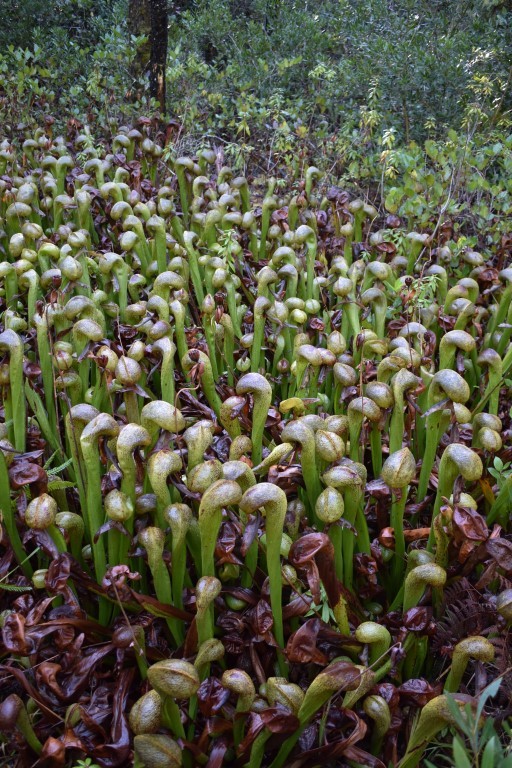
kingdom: Plantae
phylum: Tracheophyta
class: Magnoliopsida
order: Ericales
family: Sarraceniaceae
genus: Darlingtonia
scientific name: Darlingtonia californica
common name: California pitcher plant
